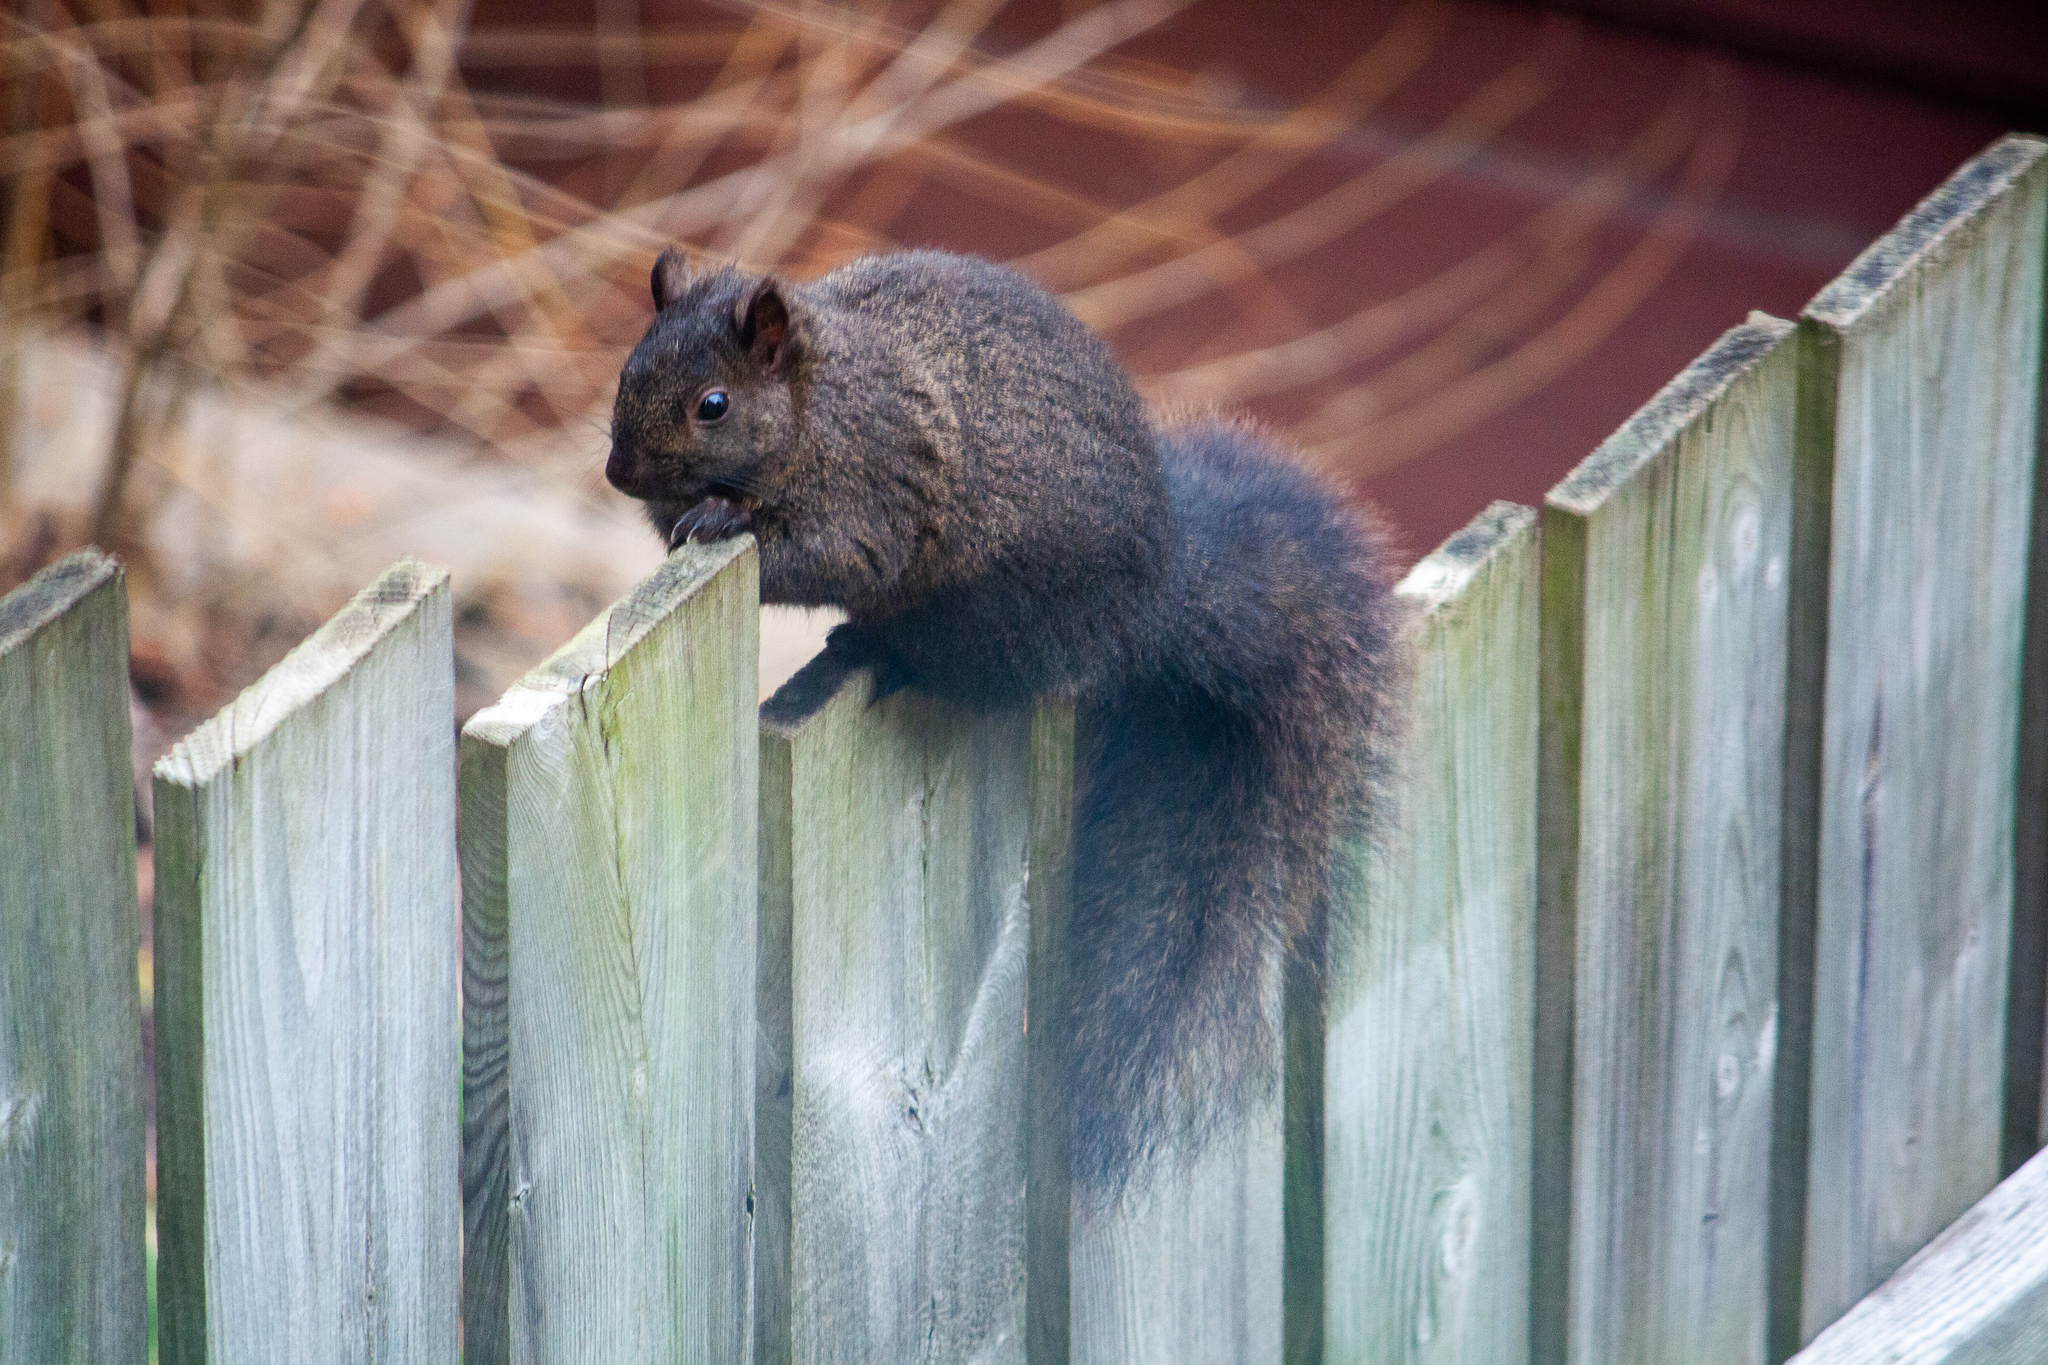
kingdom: Animalia
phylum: Chordata
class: Mammalia
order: Rodentia
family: Sciuridae
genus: Sciurus
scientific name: Sciurus carolinensis
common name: Eastern gray squirrel
